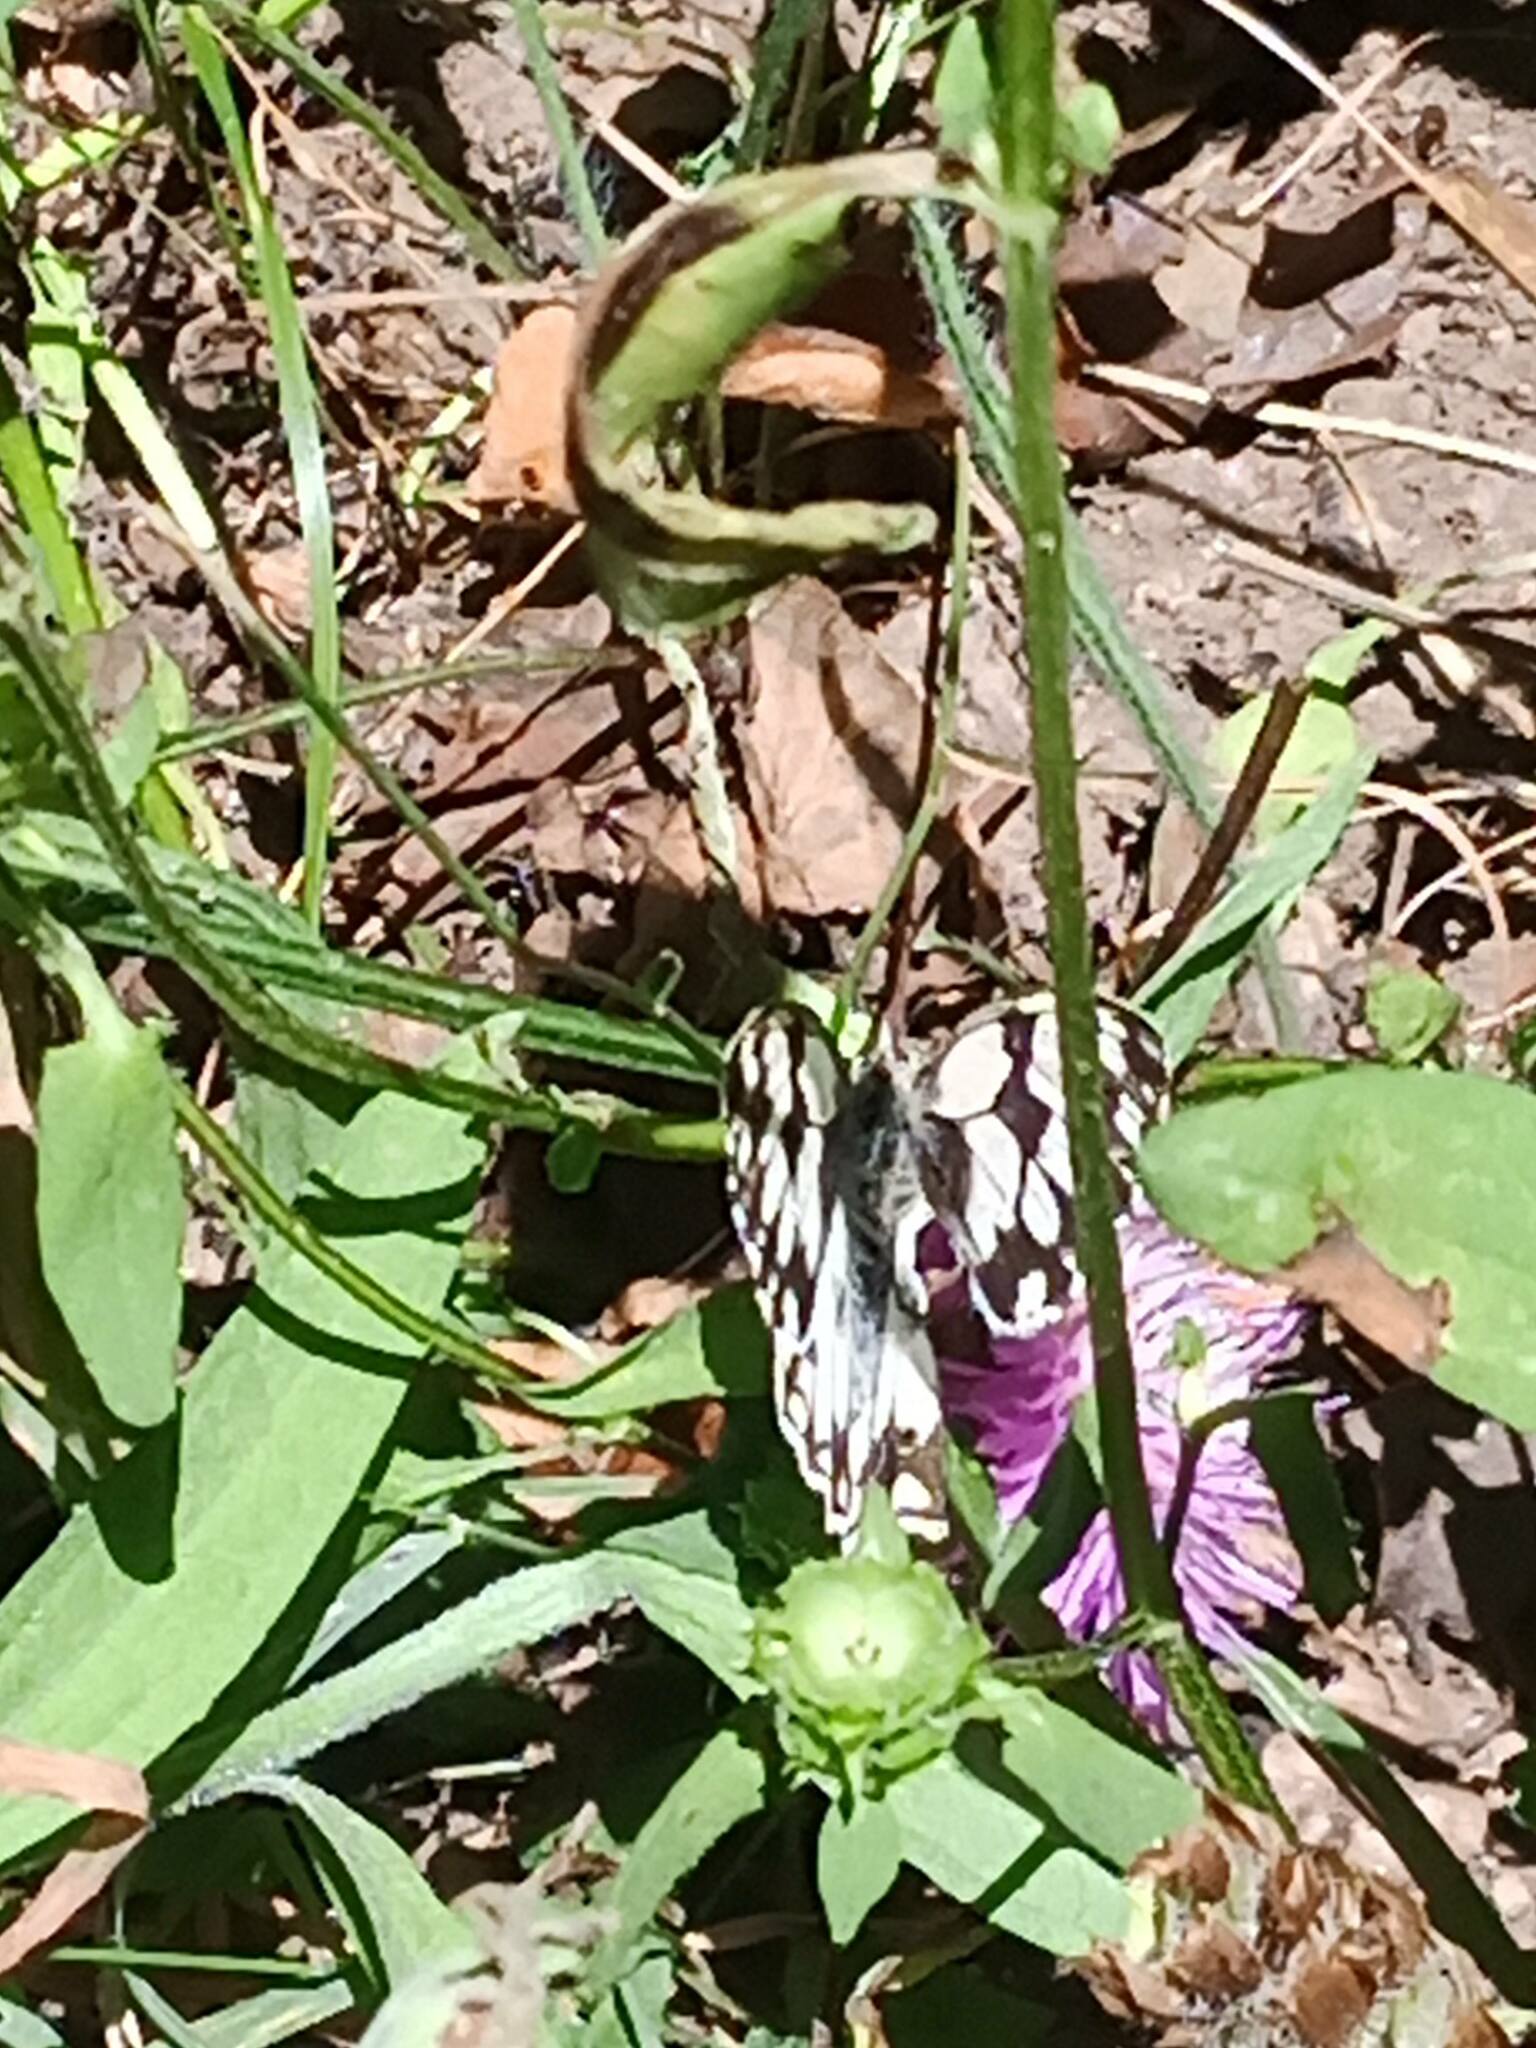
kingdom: Animalia
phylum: Arthropoda
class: Insecta
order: Lepidoptera
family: Nymphalidae
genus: Melanargia
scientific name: Melanargia lachesis
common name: Iberian marbled white
